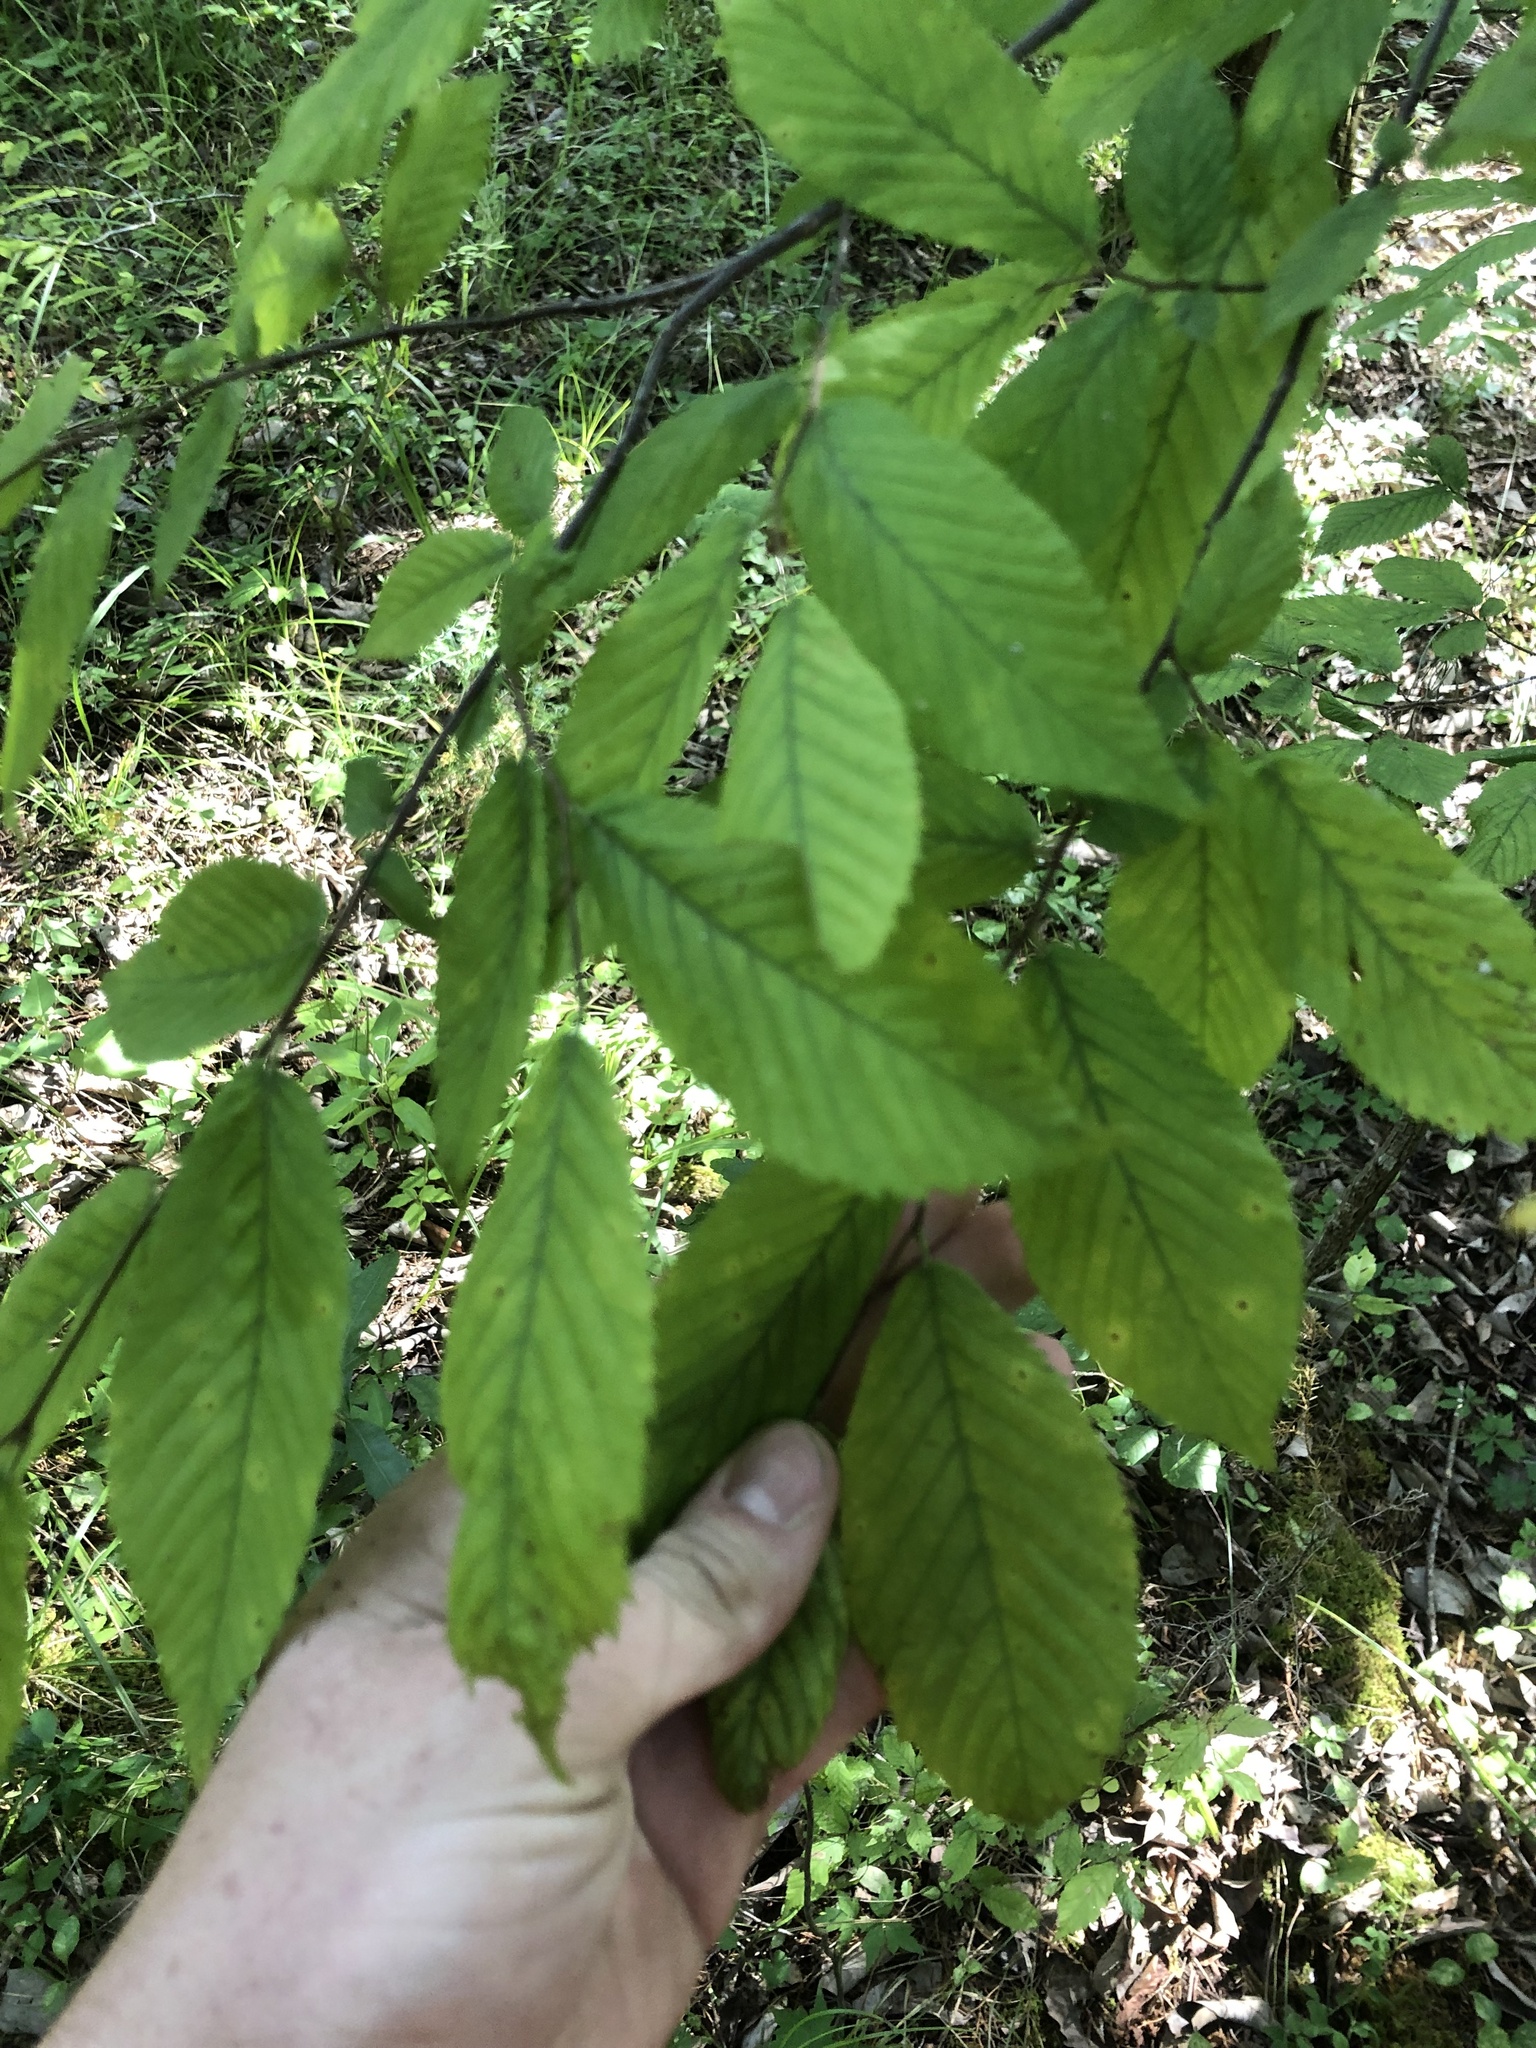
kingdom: Plantae
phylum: Tracheophyta
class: Magnoliopsida
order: Fagales
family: Betulaceae
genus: Ostrya
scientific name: Ostrya virginiana
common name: Ironwood
